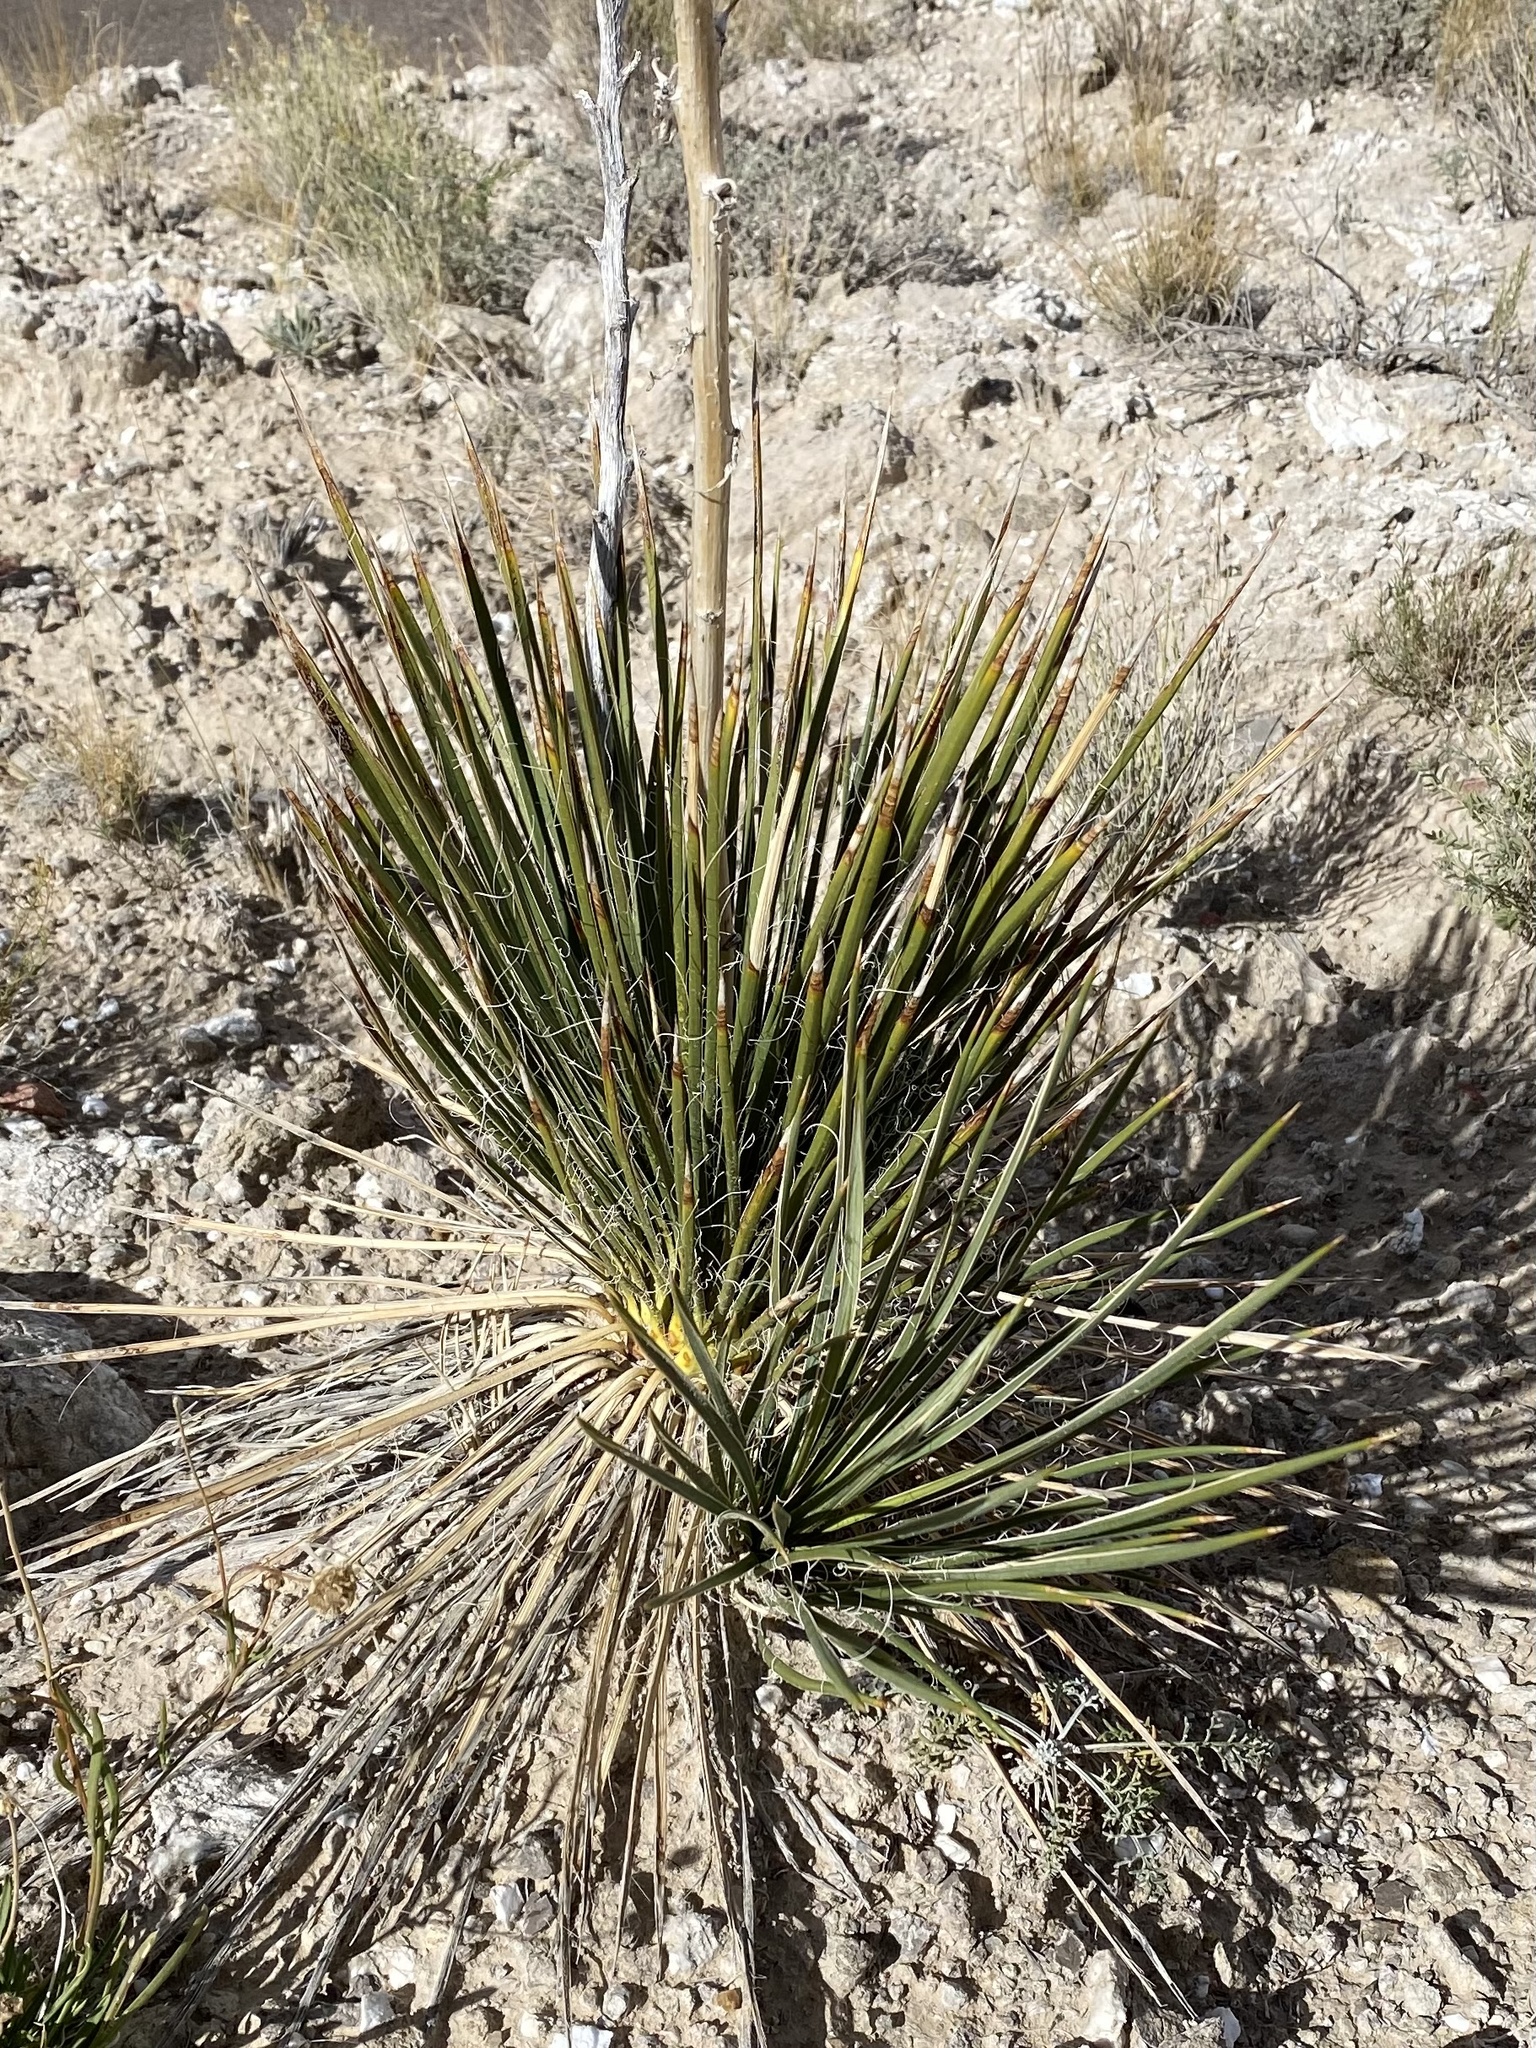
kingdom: Plantae
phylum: Tracheophyta
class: Liliopsida
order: Asparagales
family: Asparagaceae
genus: Yucca
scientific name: Yucca baileyi
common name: Alpine yucca
